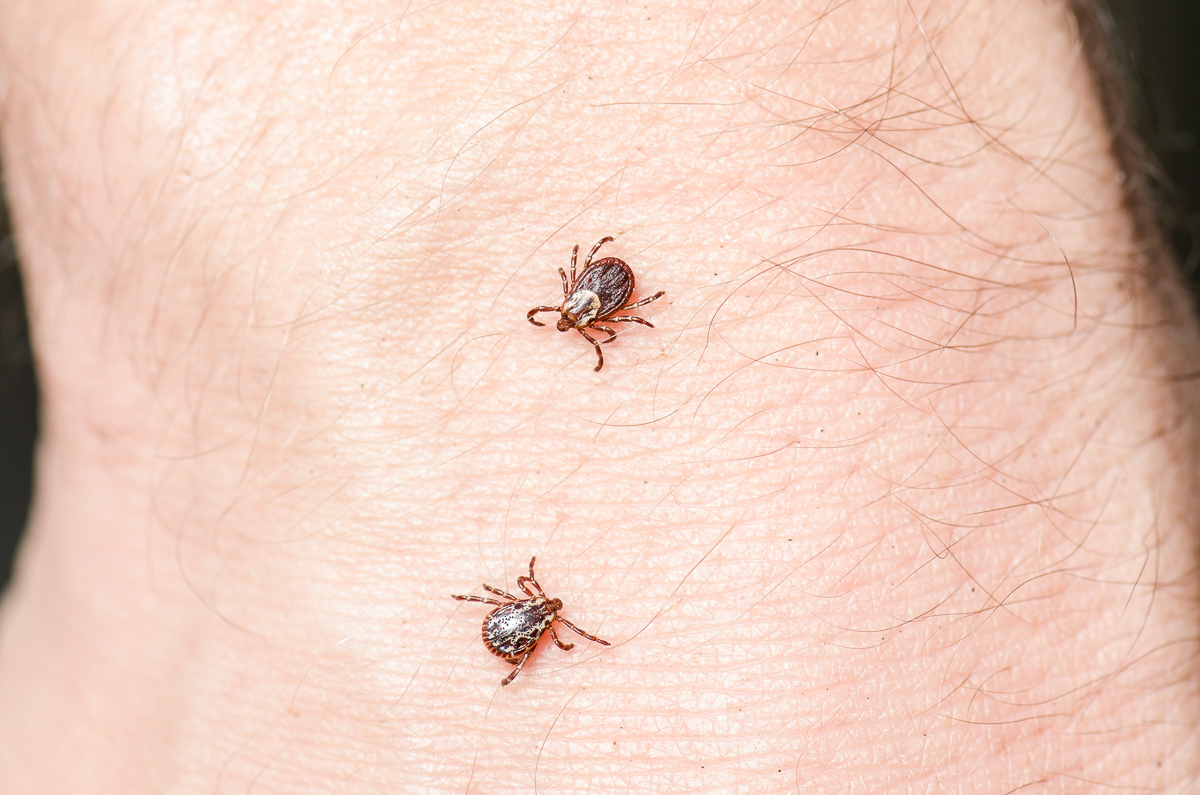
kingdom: Animalia
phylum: Arthropoda
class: Arachnida
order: Ixodida
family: Ixodidae
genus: Dermacentor
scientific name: Dermacentor variabilis
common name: American dog tick
